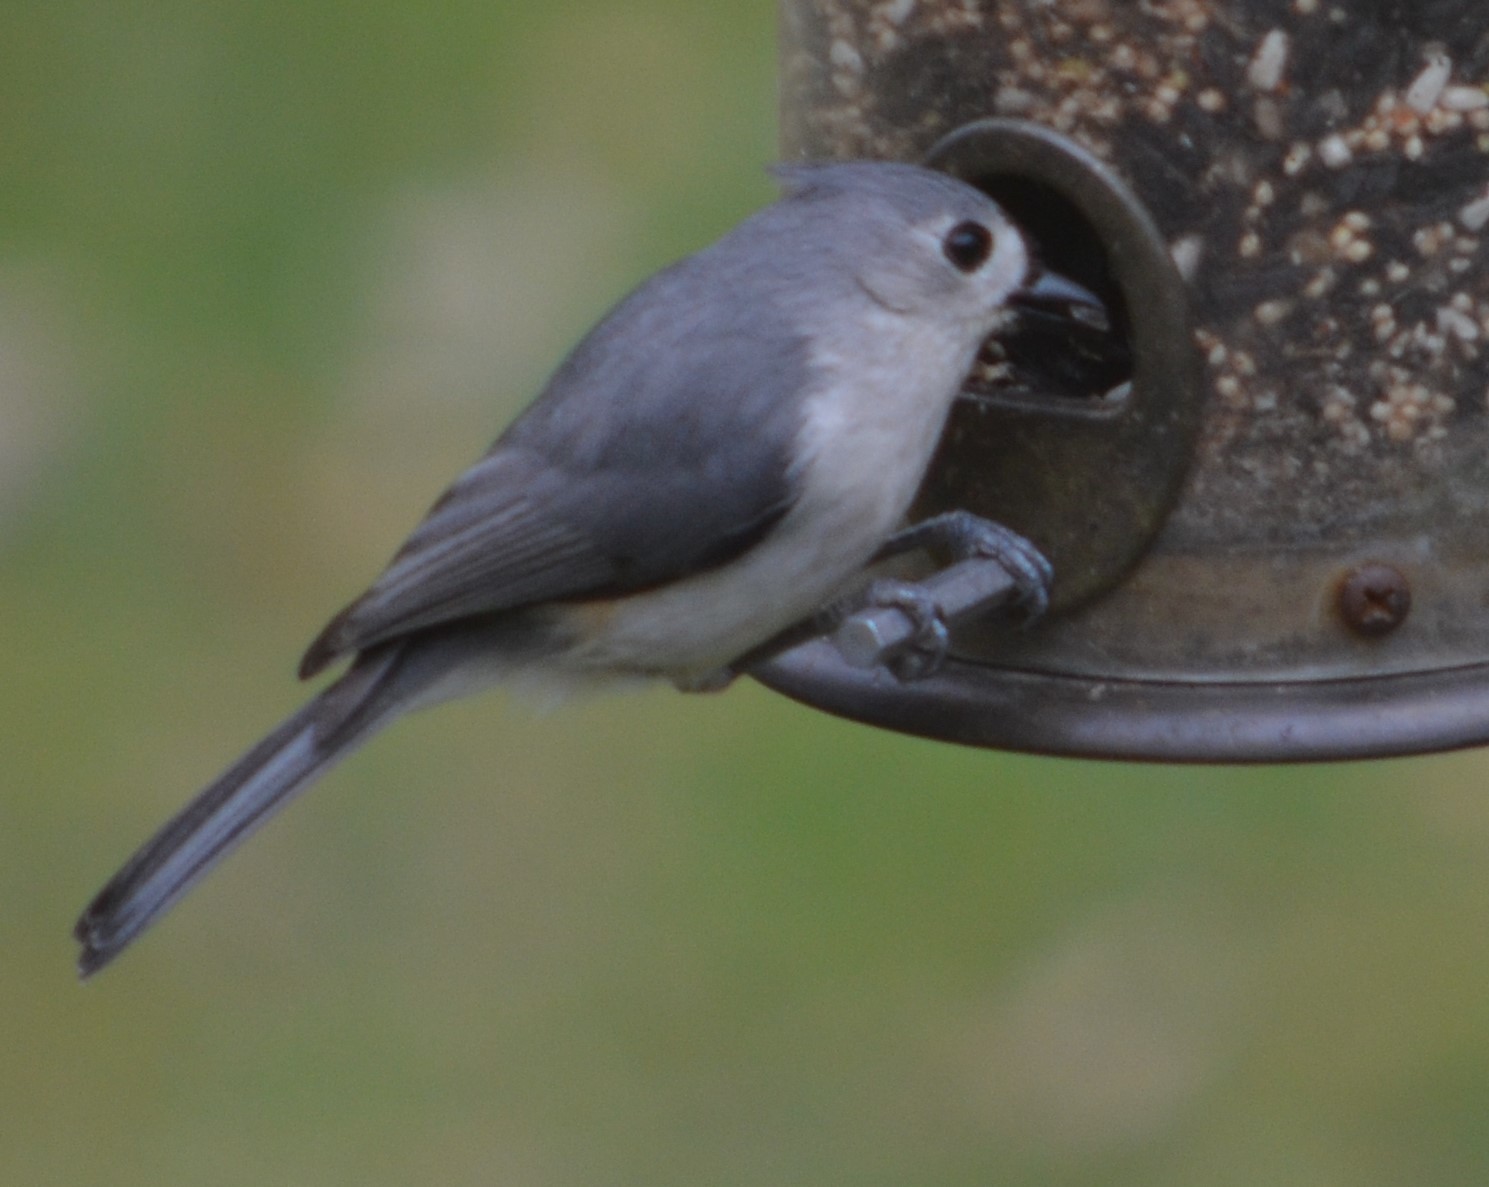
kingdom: Animalia
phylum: Chordata
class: Aves
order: Passeriformes
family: Paridae
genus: Baeolophus
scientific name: Baeolophus bicolor
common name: Tufted titmouse
